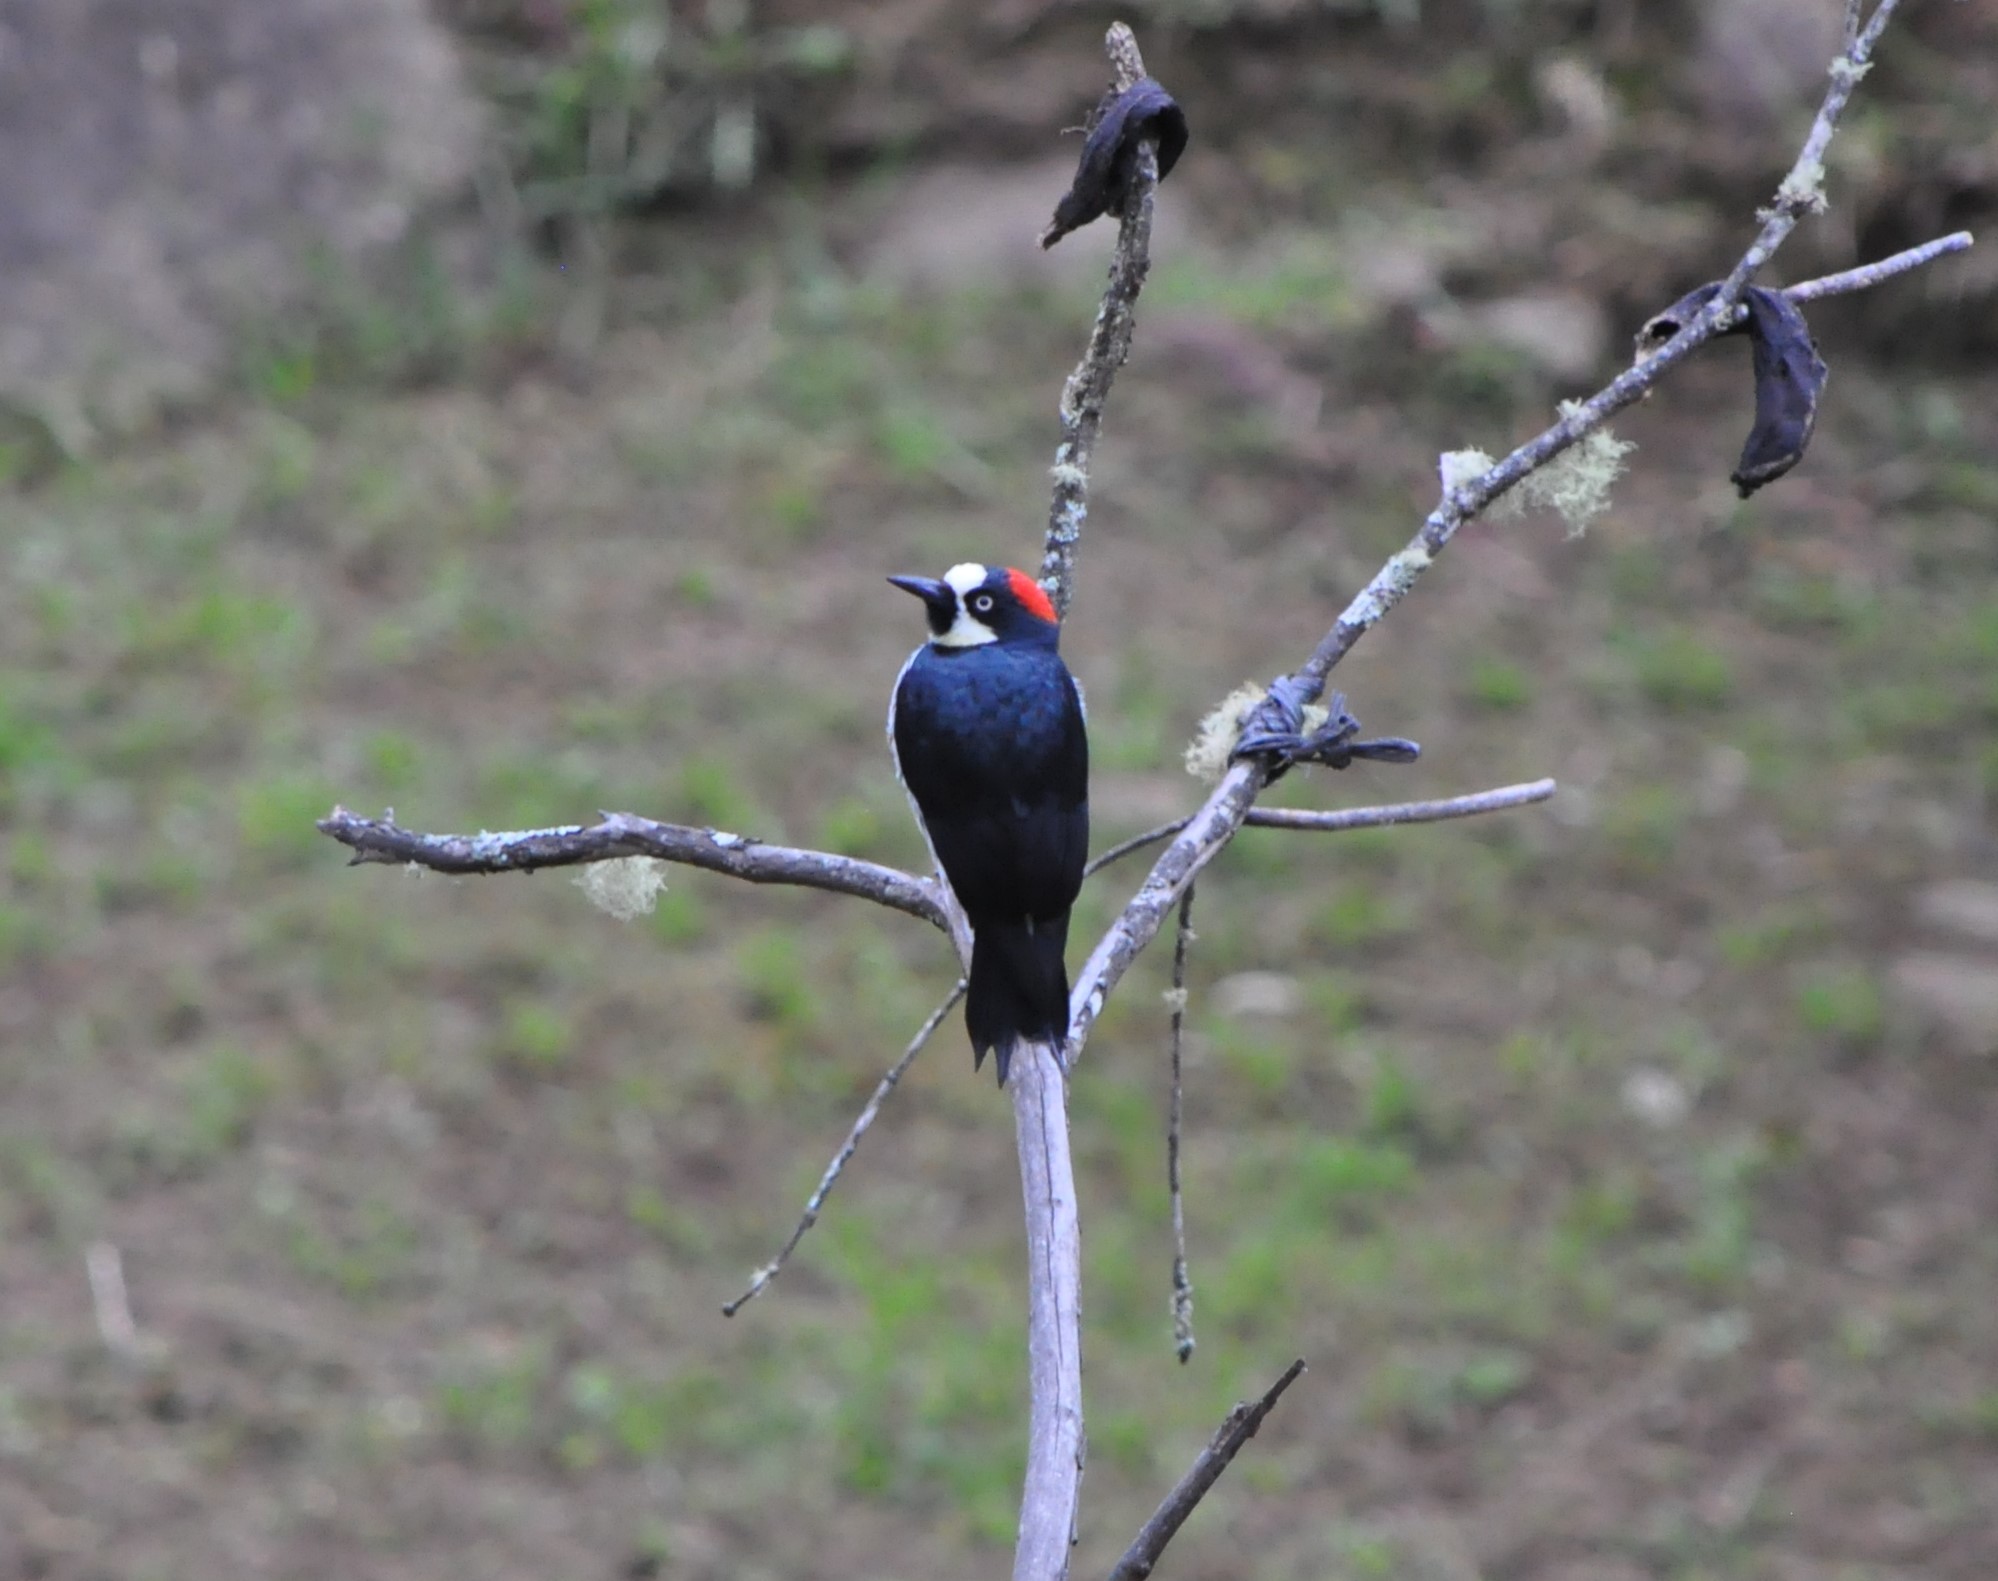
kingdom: Animalia
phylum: Chordata
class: Aves
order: Piciformes
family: Picidae
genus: Melanerpes
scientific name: Melanerpes formicivorus
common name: Acorn woodpecker
